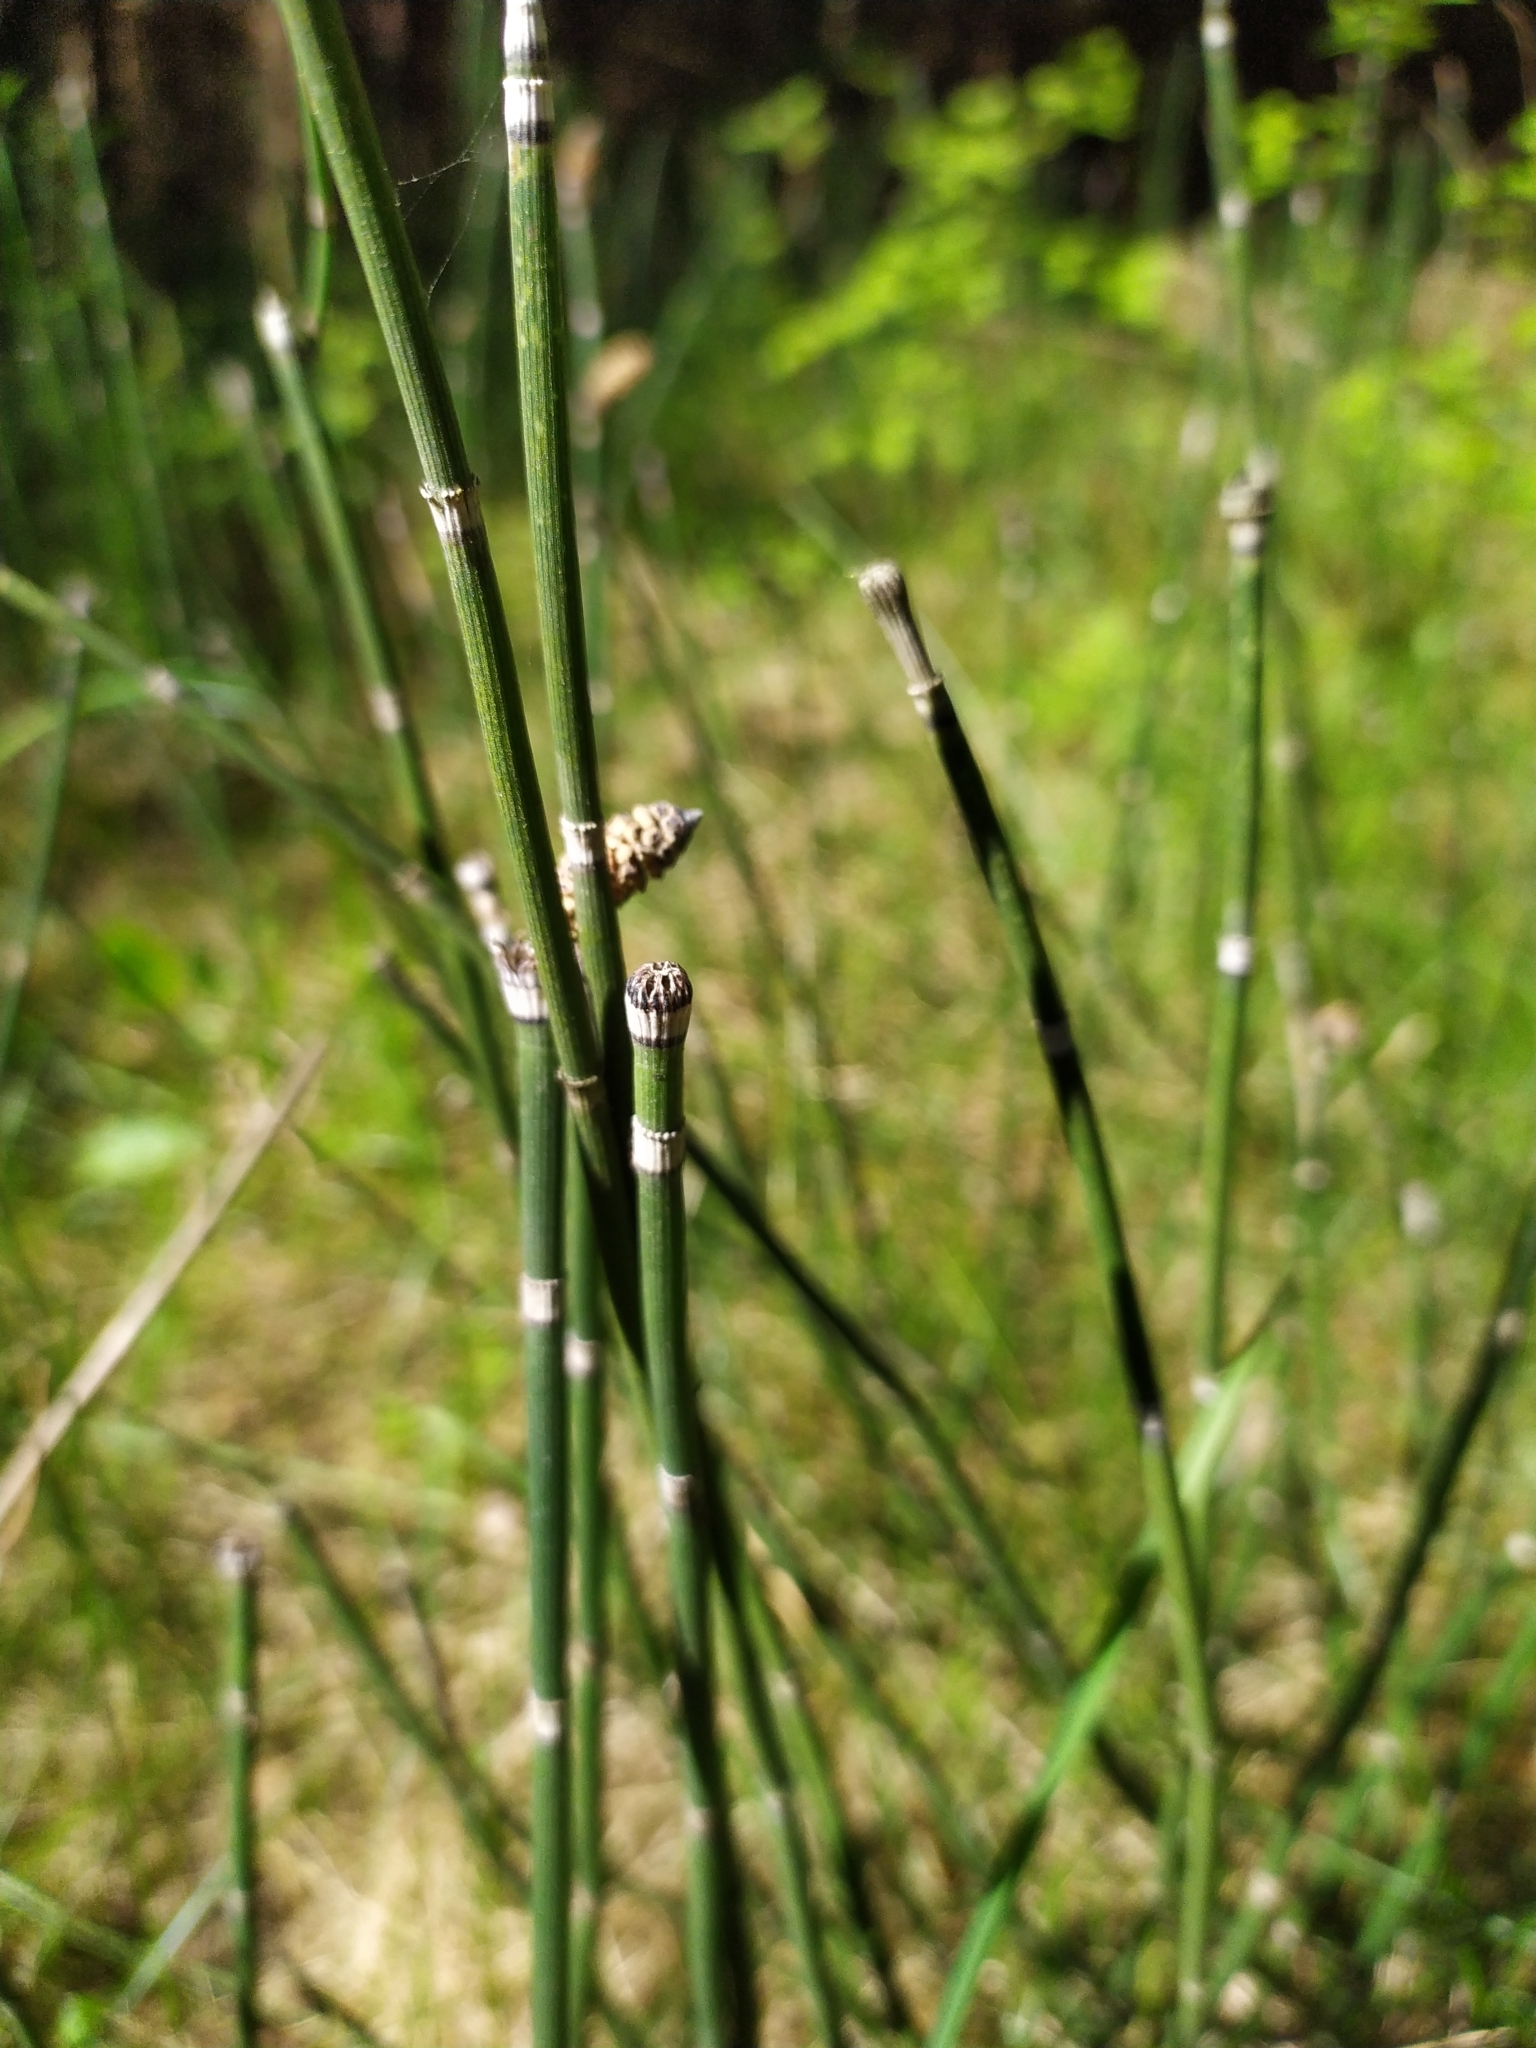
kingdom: Plantae
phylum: Tracheophyta
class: Polypodiopsida
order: Equisetales
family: Equisetaceae
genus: Equisetum
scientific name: Equisetum hyemale
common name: Rough horsetail
